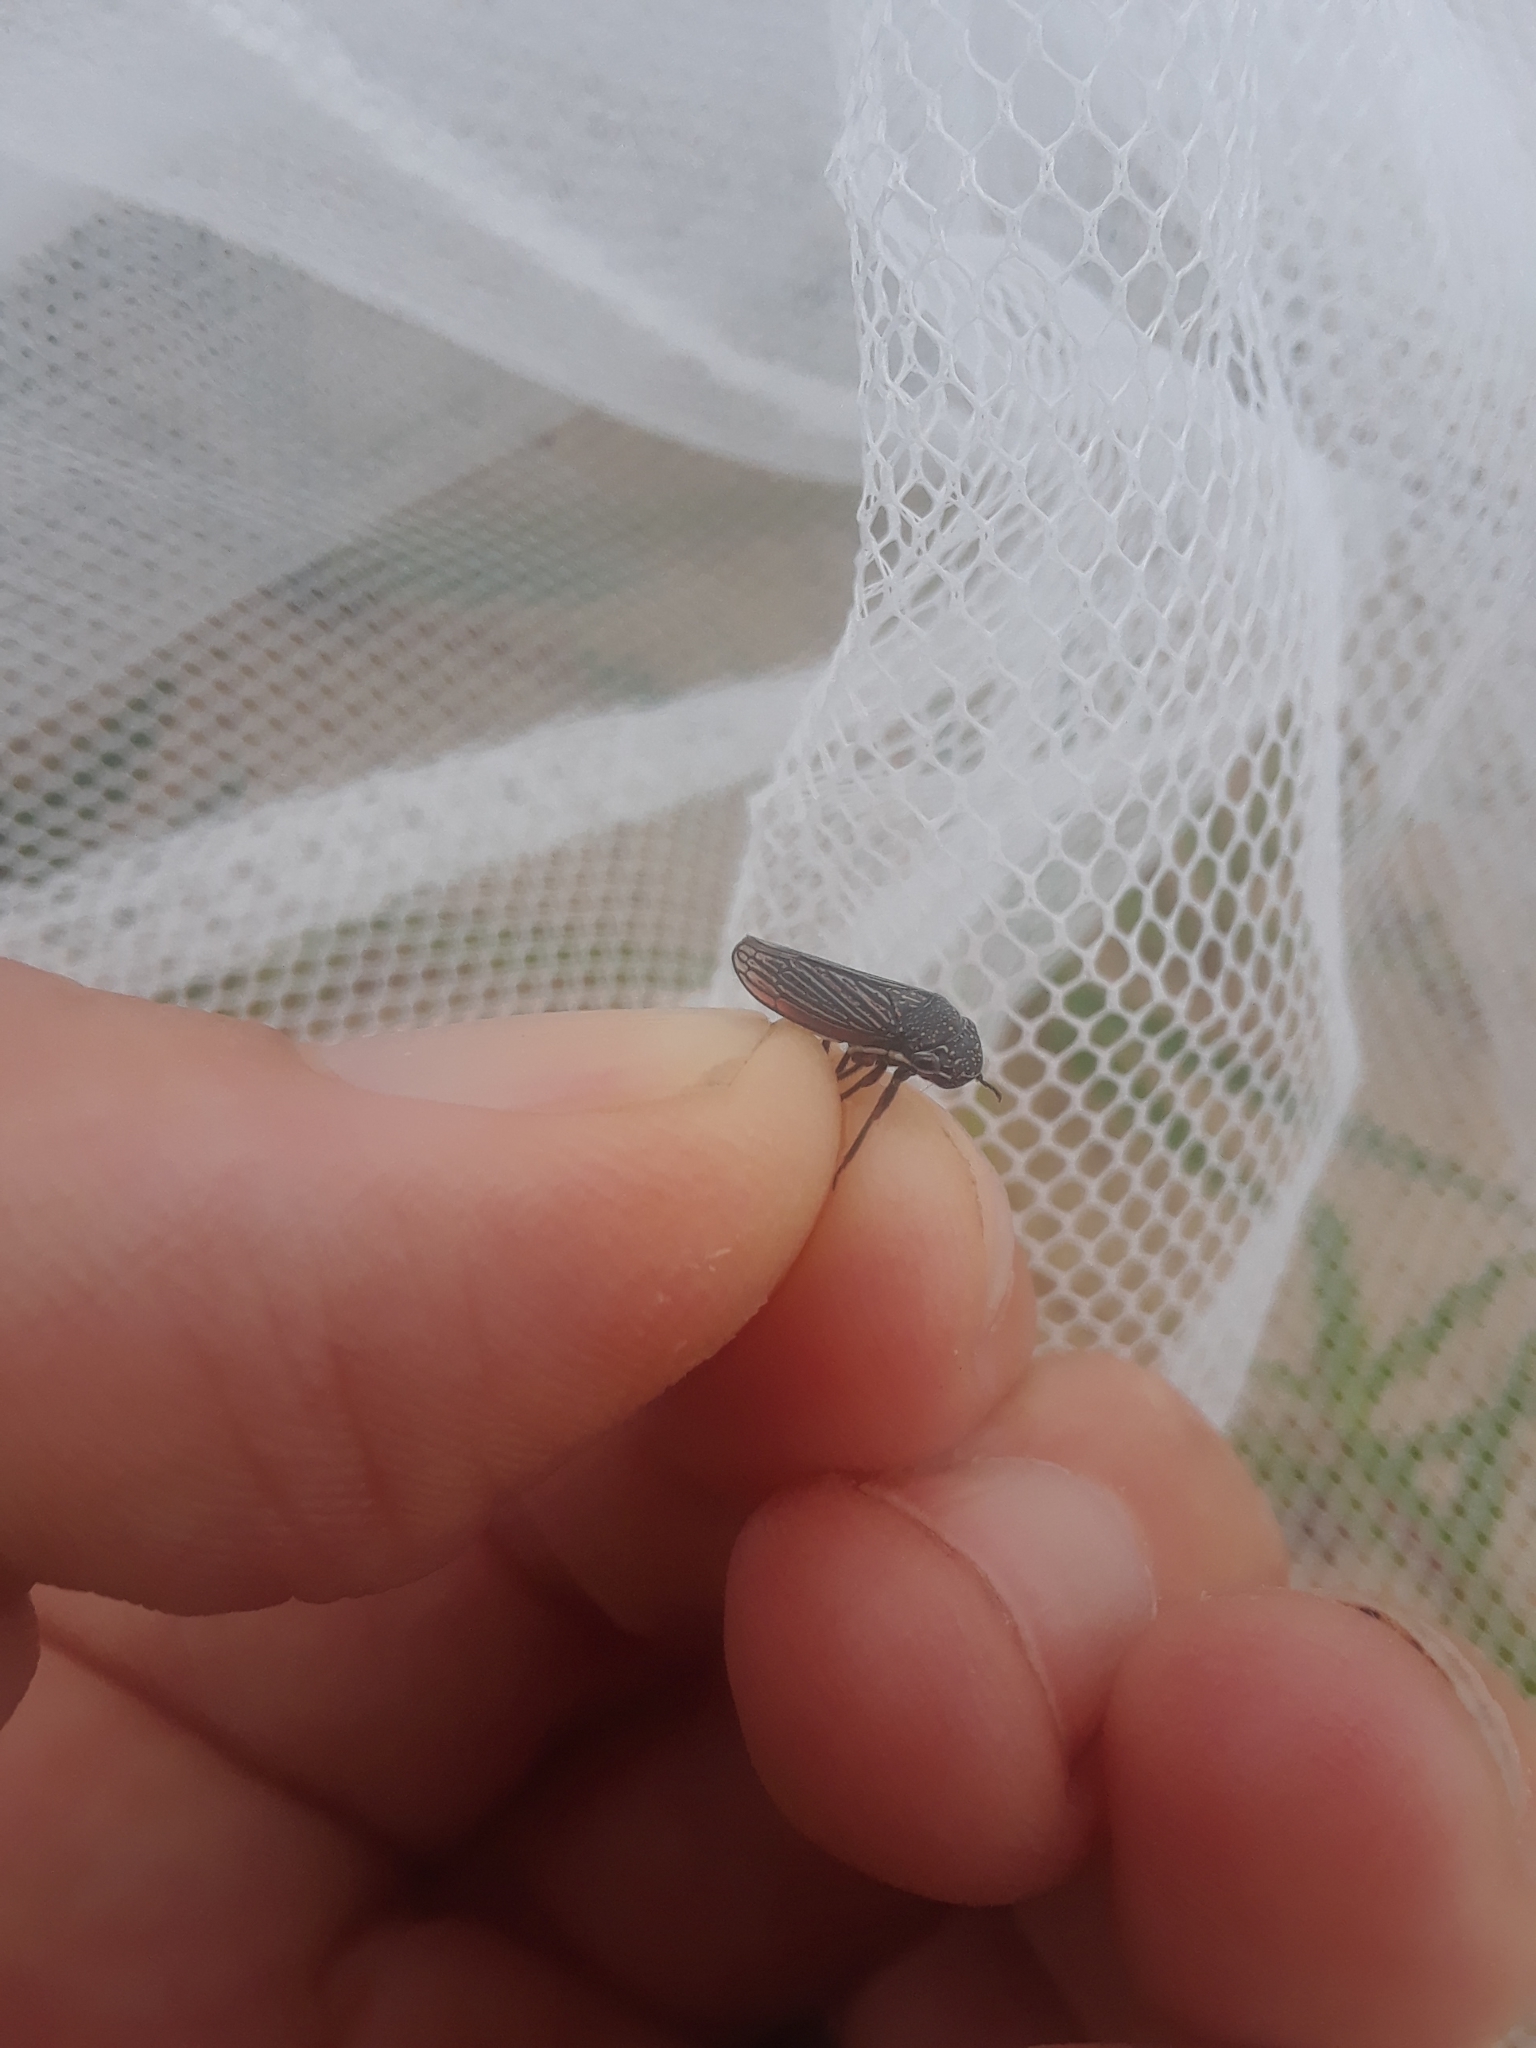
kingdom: Animalia
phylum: Arthropoda
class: Insecta
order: Hemiptera
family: Cicadellidae
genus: Cuerna
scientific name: Cuerna costalis
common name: Lateral-lined sharpshooter
